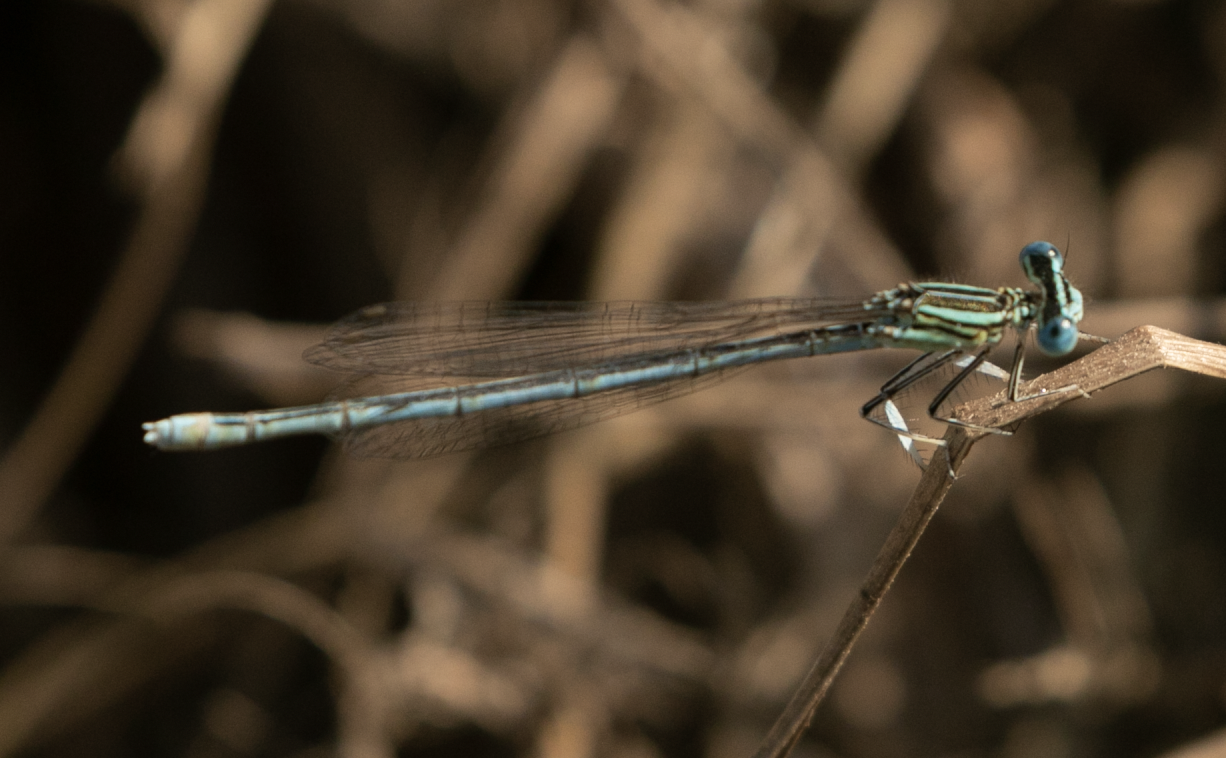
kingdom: Animalia
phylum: Arthropoda
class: Insecta
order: Odonata
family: Platycnemididae
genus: Platycnemis
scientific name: Platycnemis pennipes
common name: White-legged damselfly
